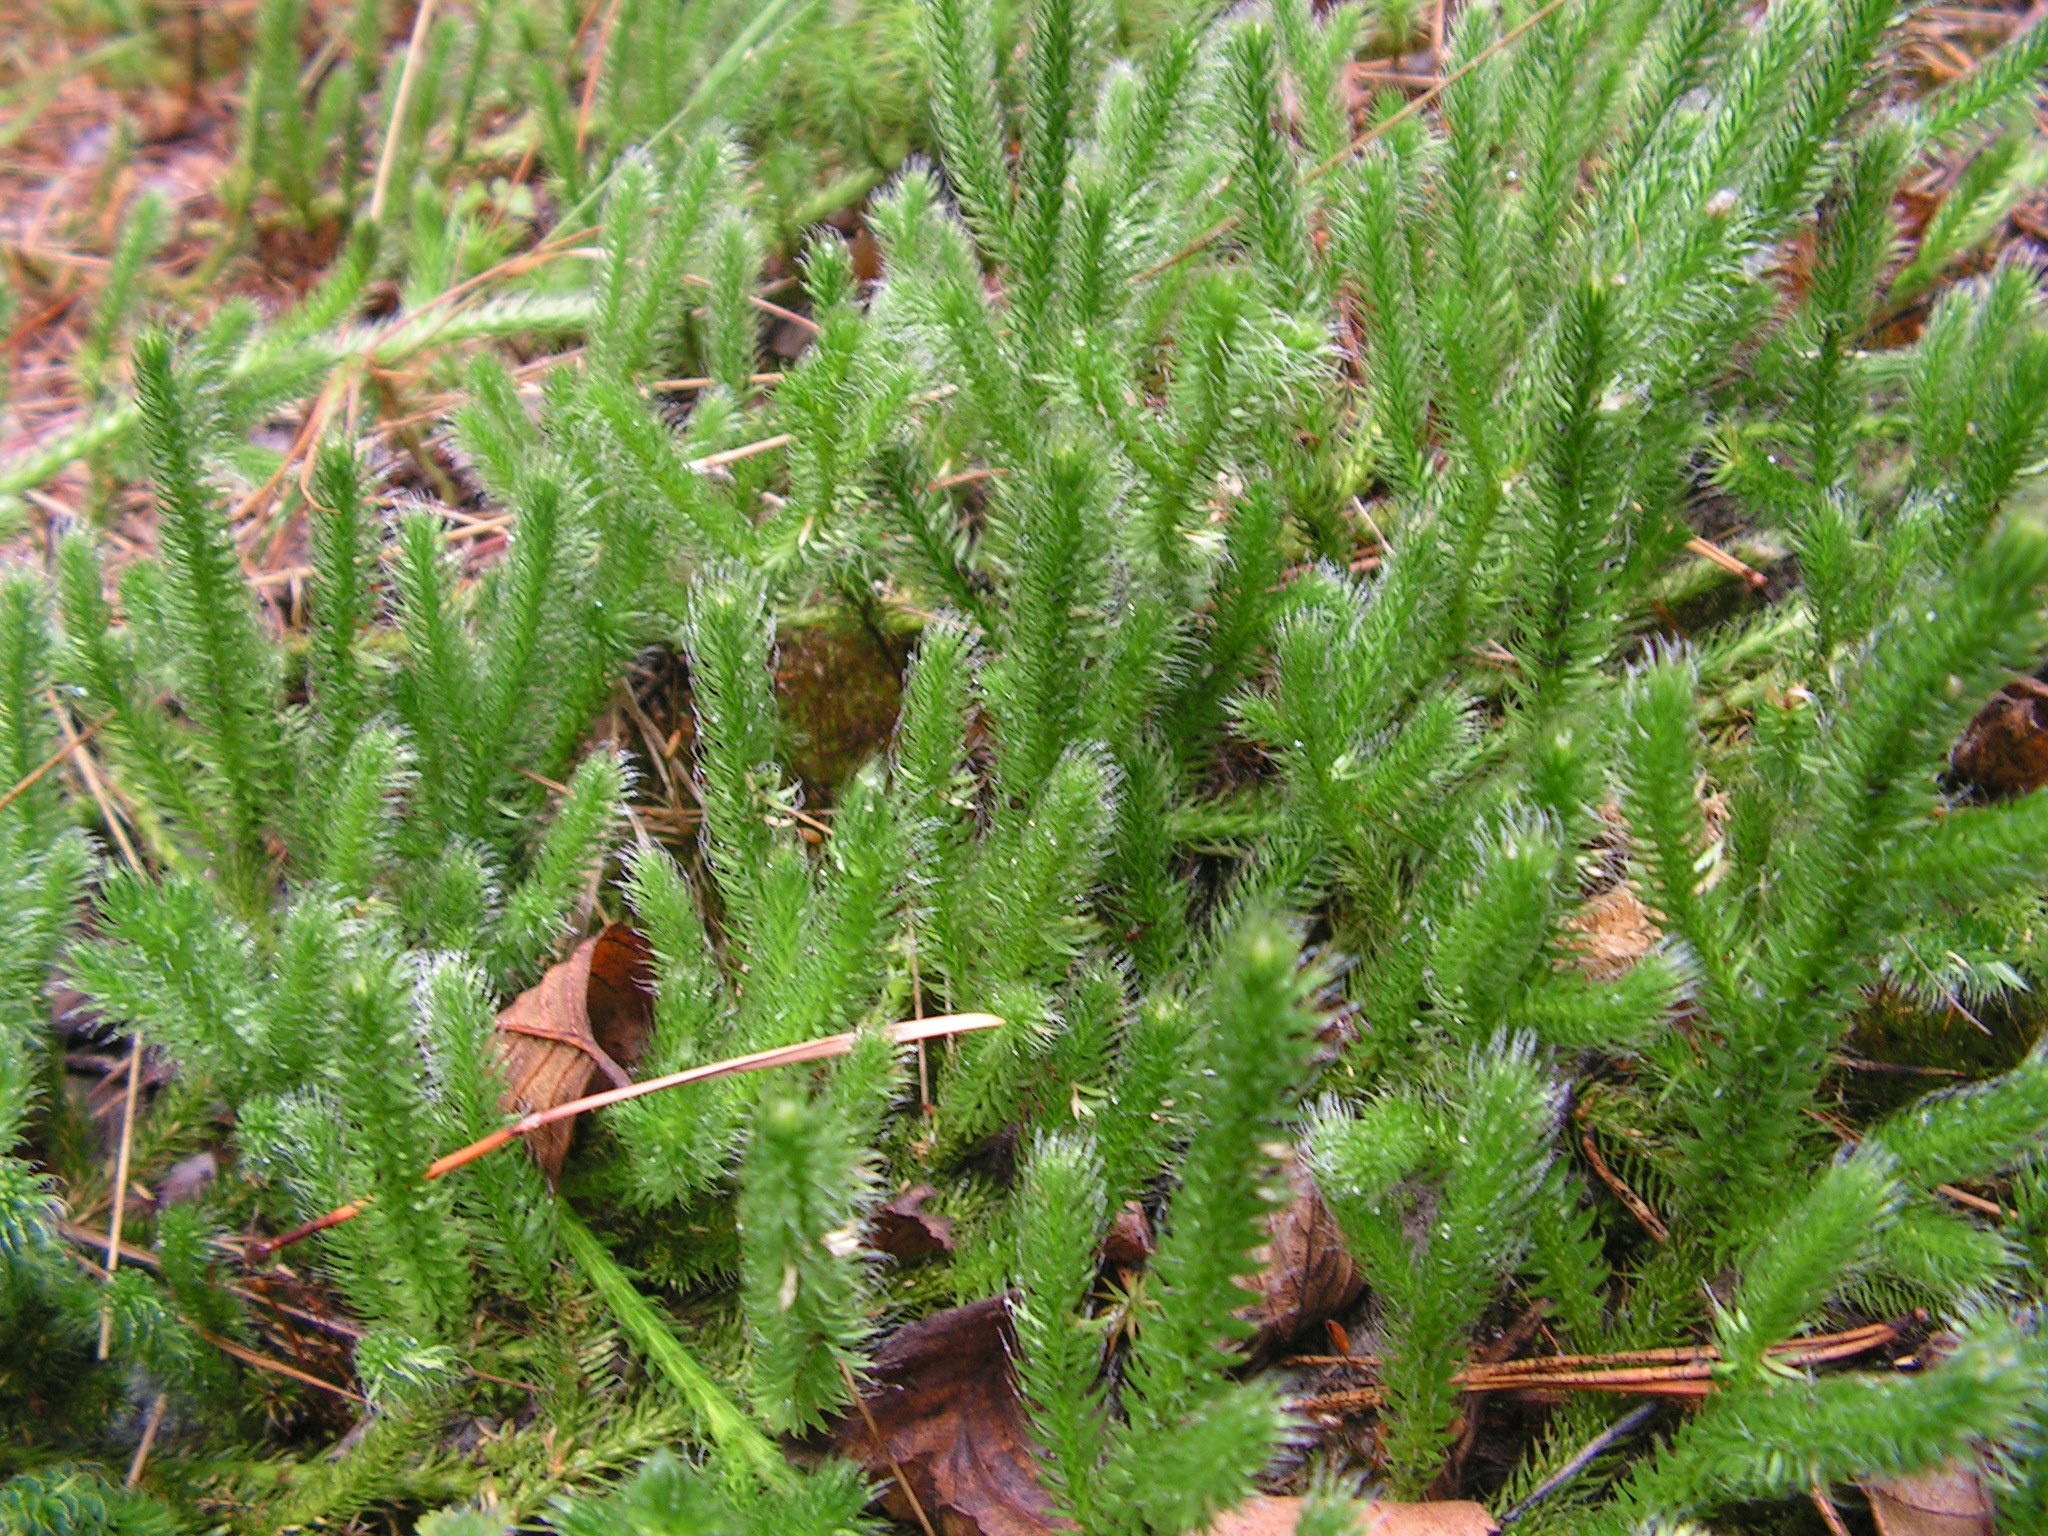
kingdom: Plantae
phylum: Tracheophyta
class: Lycopodiopsida
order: Lycopodiales
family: Lycopodiaceae
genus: Lycopodium
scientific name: Lycopodium clavatum
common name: Stag's-horn clubmoss
